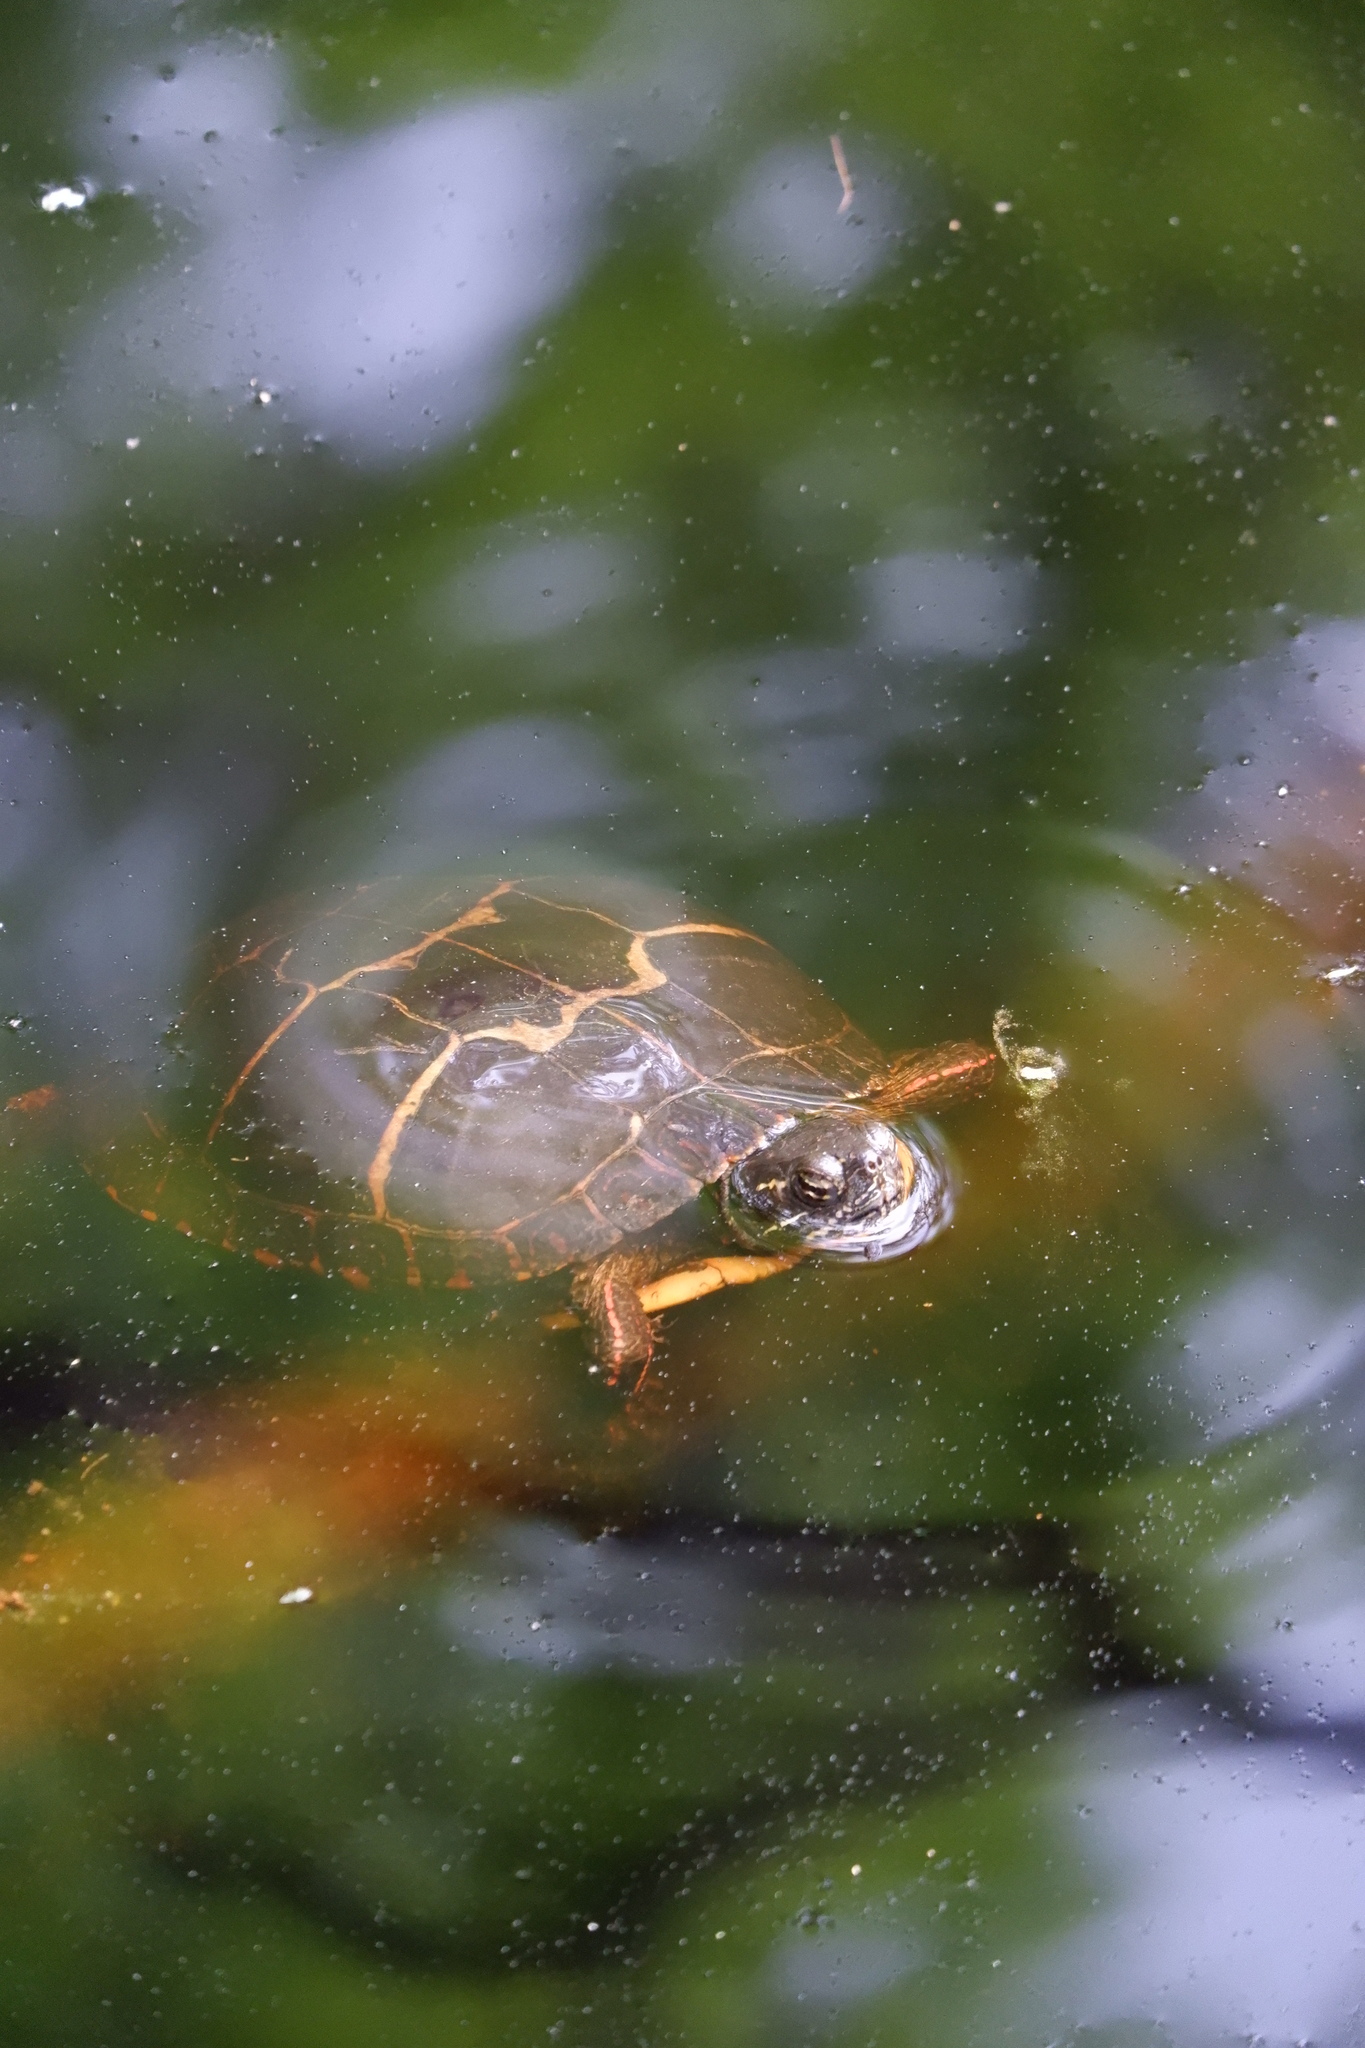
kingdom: Animalia
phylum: Chordata
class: Testudines
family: Emydidae
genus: Chrysemys
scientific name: Chrysemys picta
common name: Painted turtle
